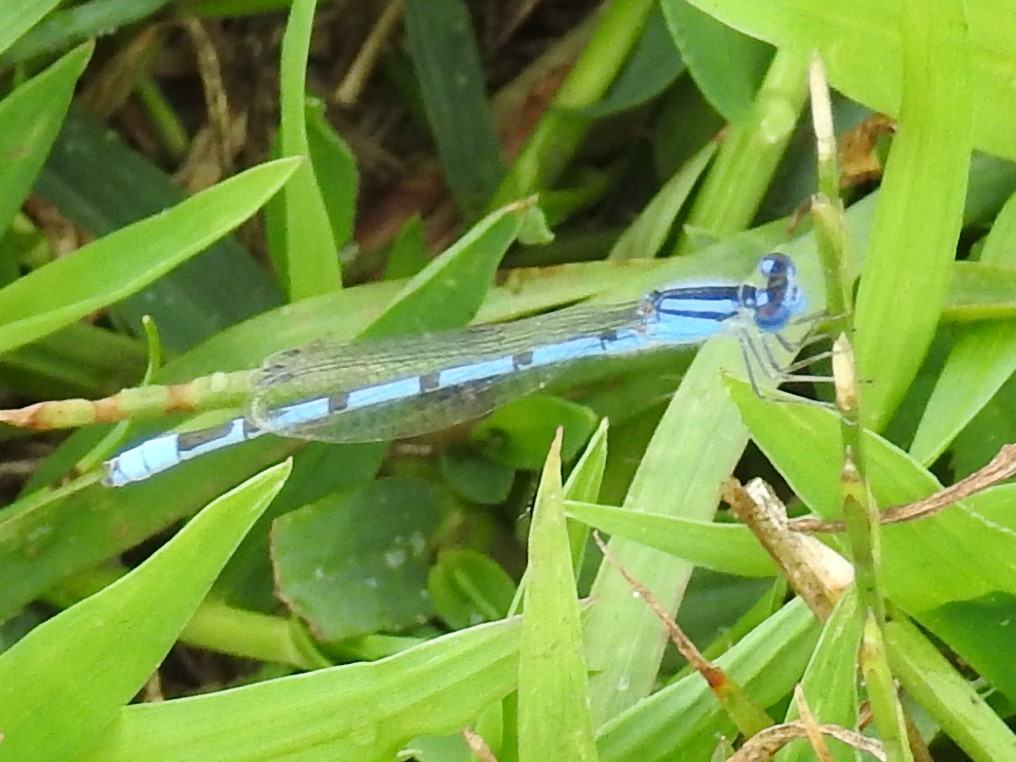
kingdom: Animalia
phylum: Arthropoda
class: Insecta
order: Odonata
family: Coenagrionidae
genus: Enallagma
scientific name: Enallagma civile
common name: Damselfly
